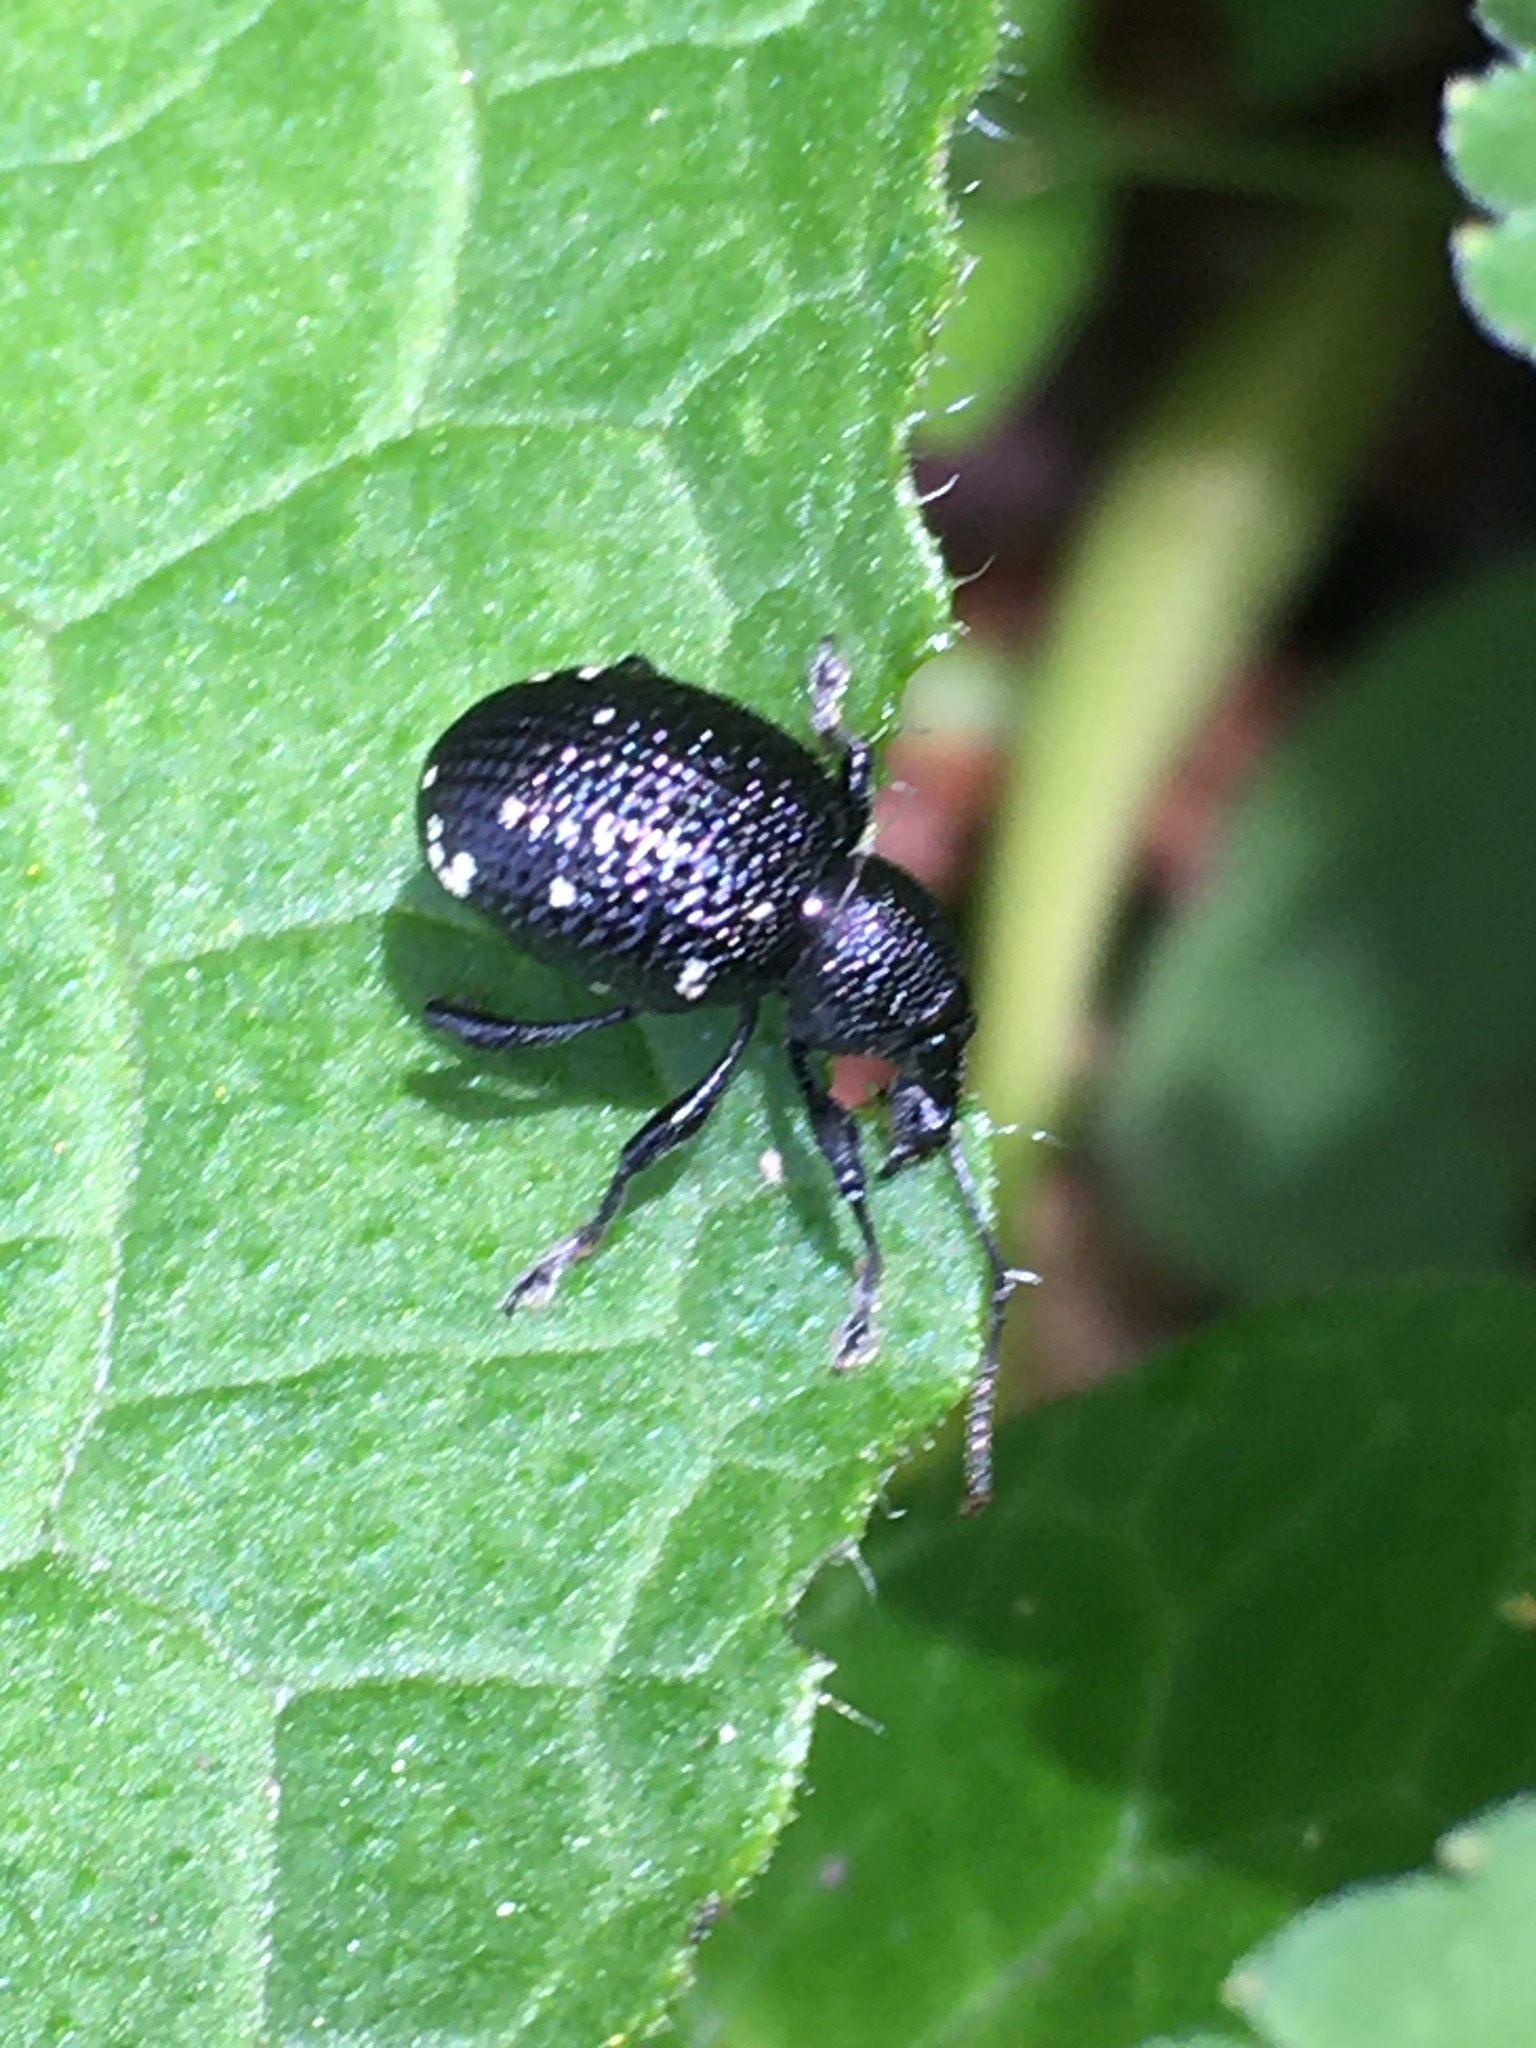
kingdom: Animalia
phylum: Arthropoda
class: Insecta
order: Coleoptera
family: Curculionidae
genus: Otiorhynchus
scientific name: Otiorhynchus gemmatus
